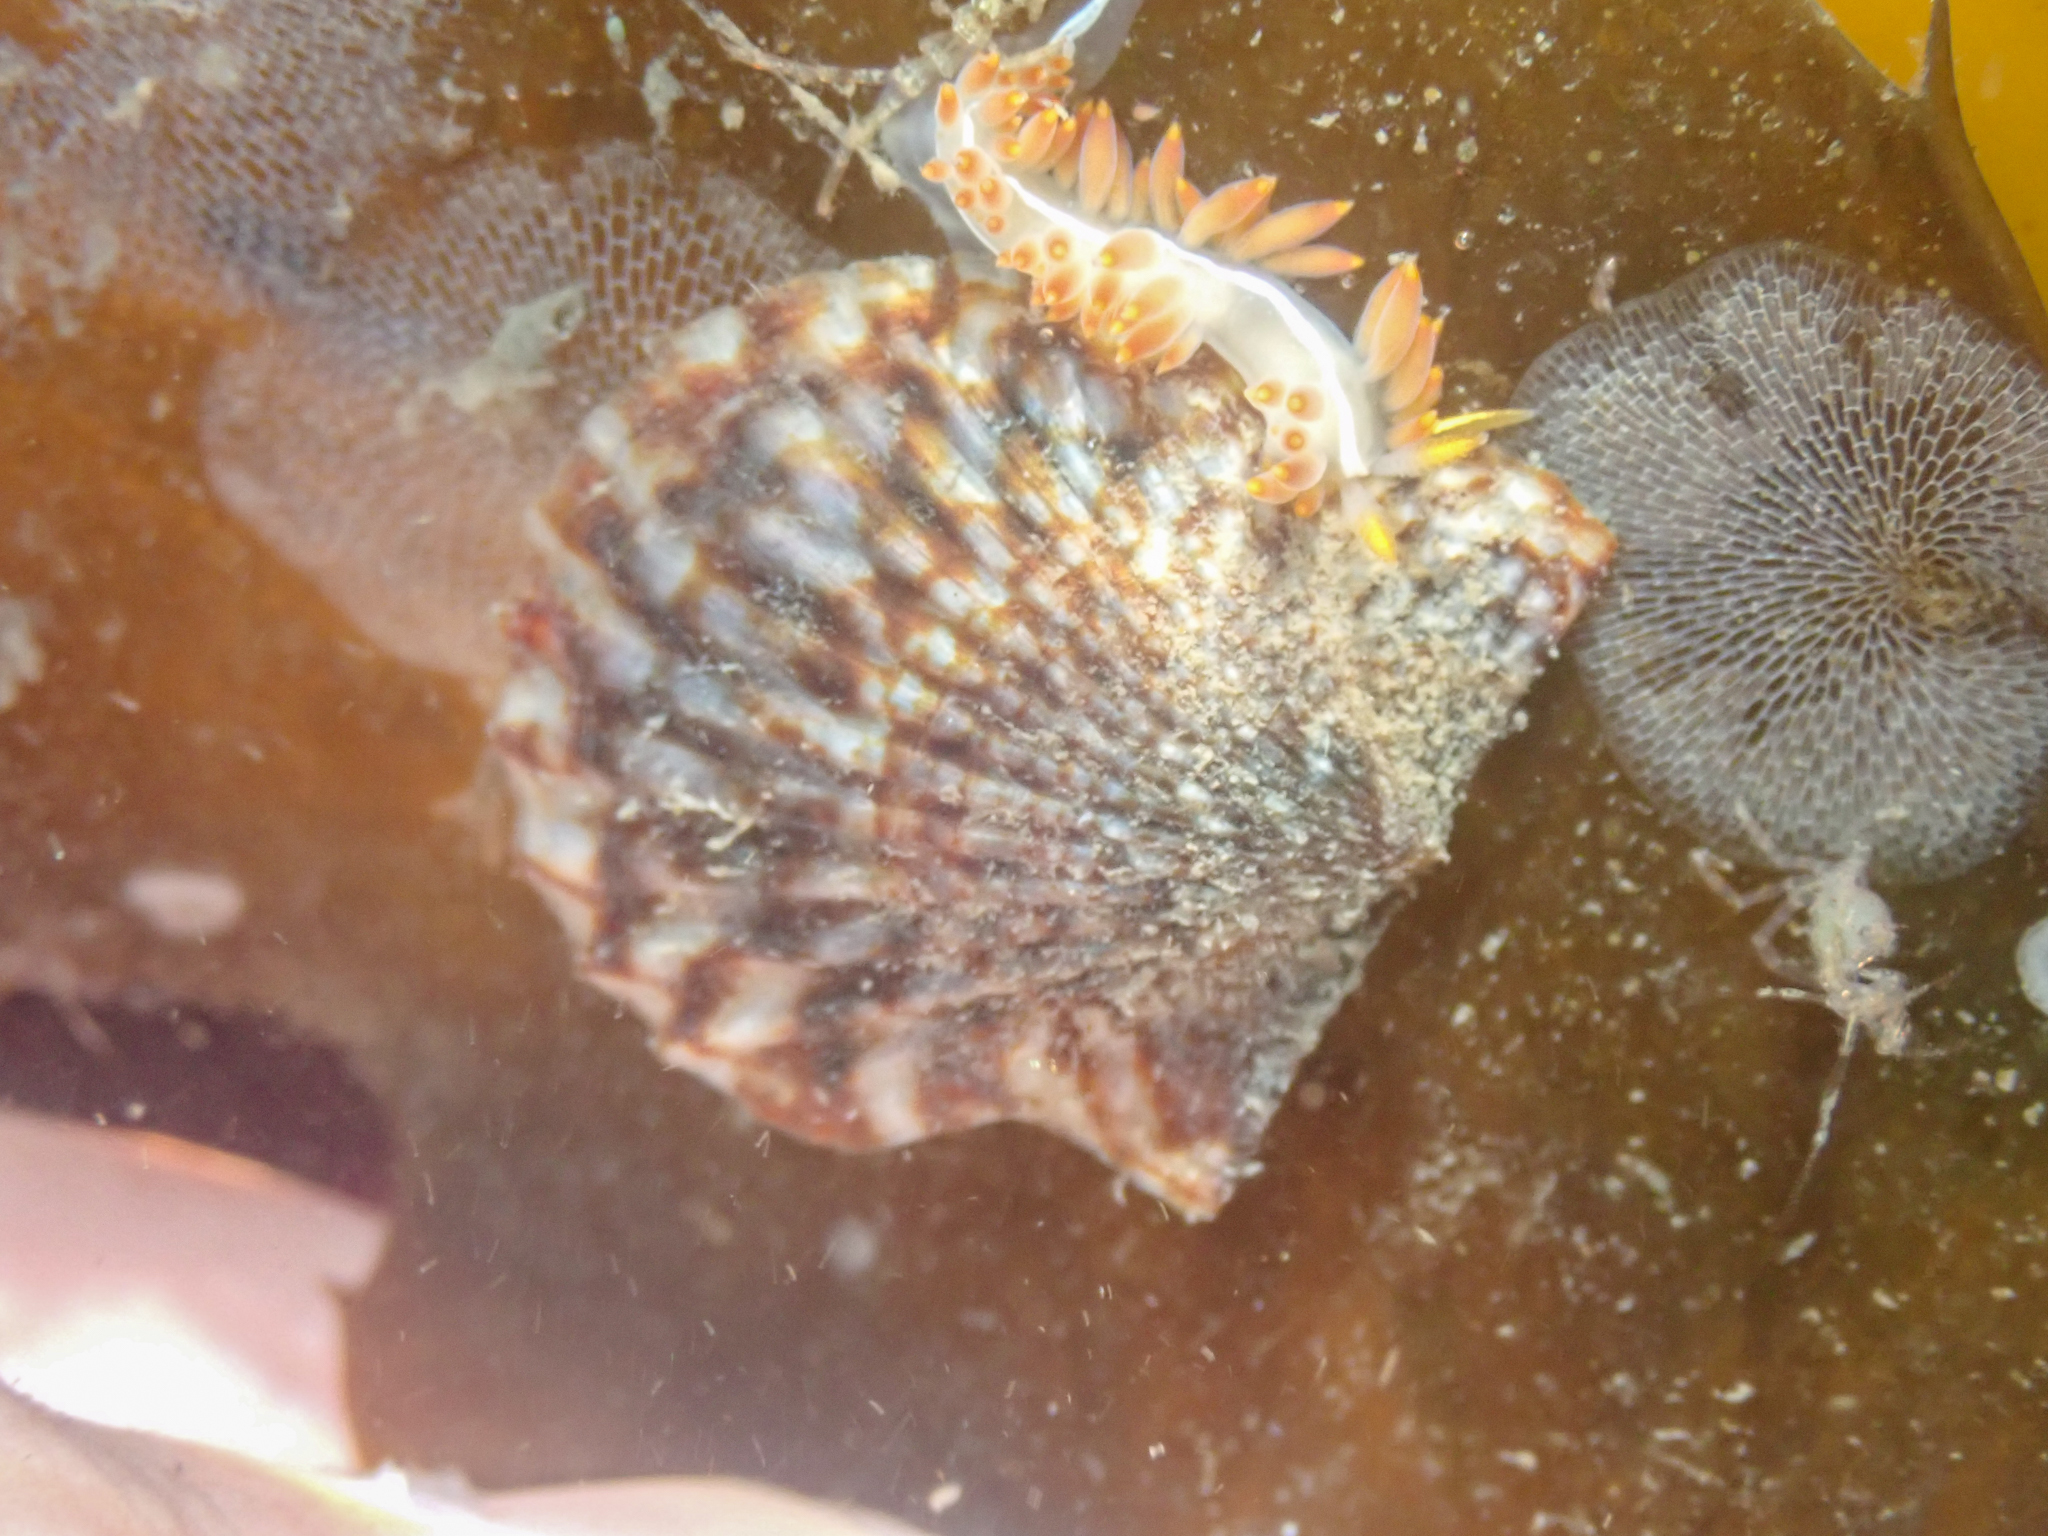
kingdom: Animalia
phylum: Mollusca
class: Bivalvia
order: Pectinida
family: Pectinidae
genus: Leptopecten
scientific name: Leptopecten latiauratus
